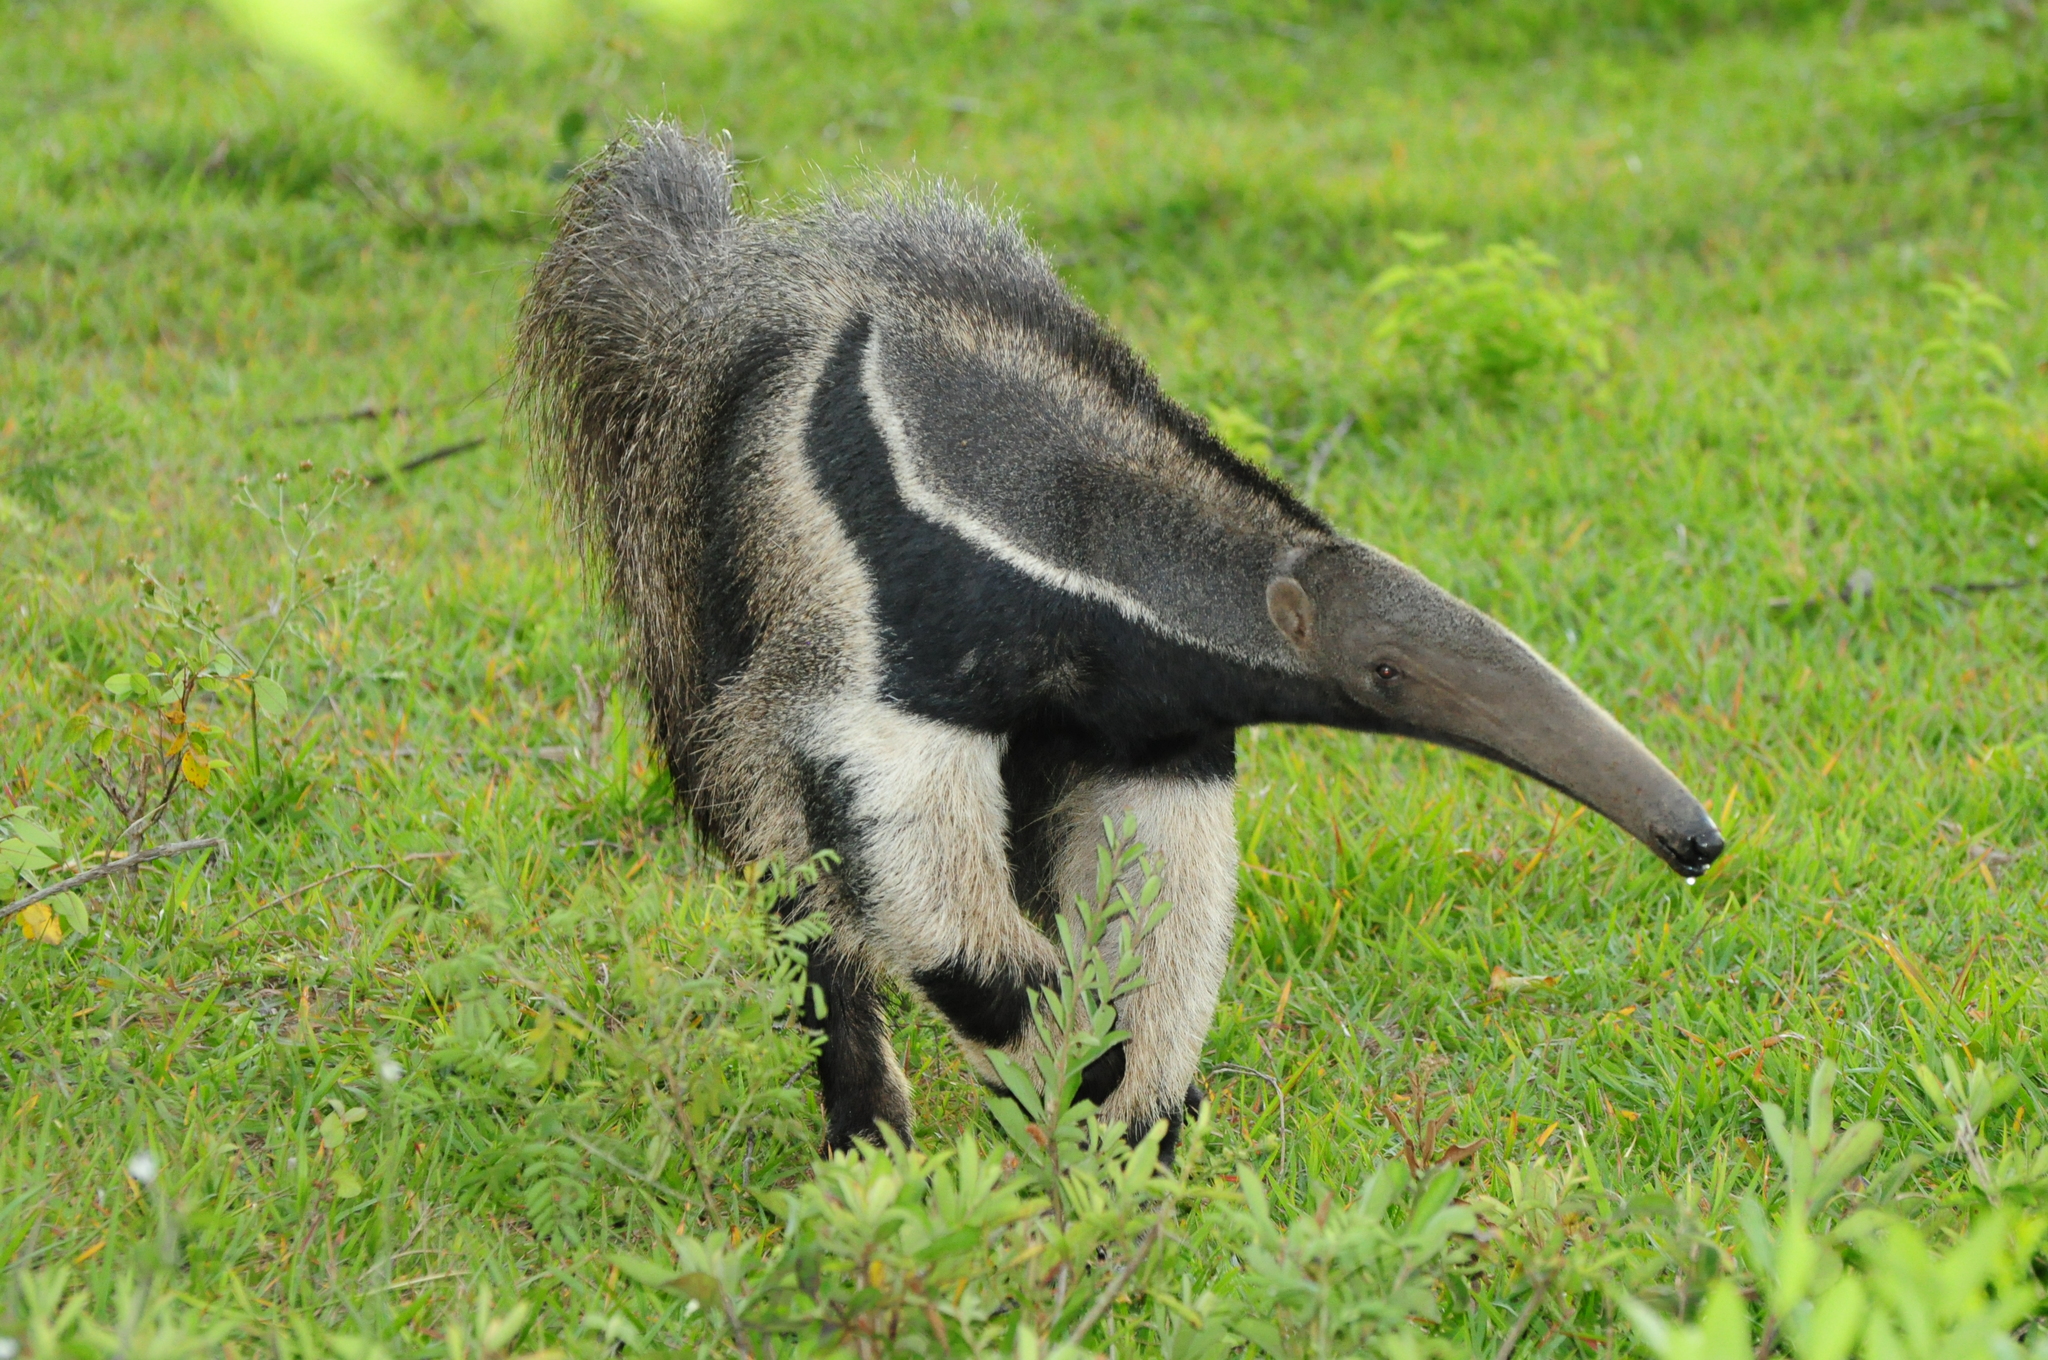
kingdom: Animalia
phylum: Chordata
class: Mammalia
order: Pilosa
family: Myrmecophagidae
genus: Myrmecophaga
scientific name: Myrmecophaga tridactyla
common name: Giant anteater
